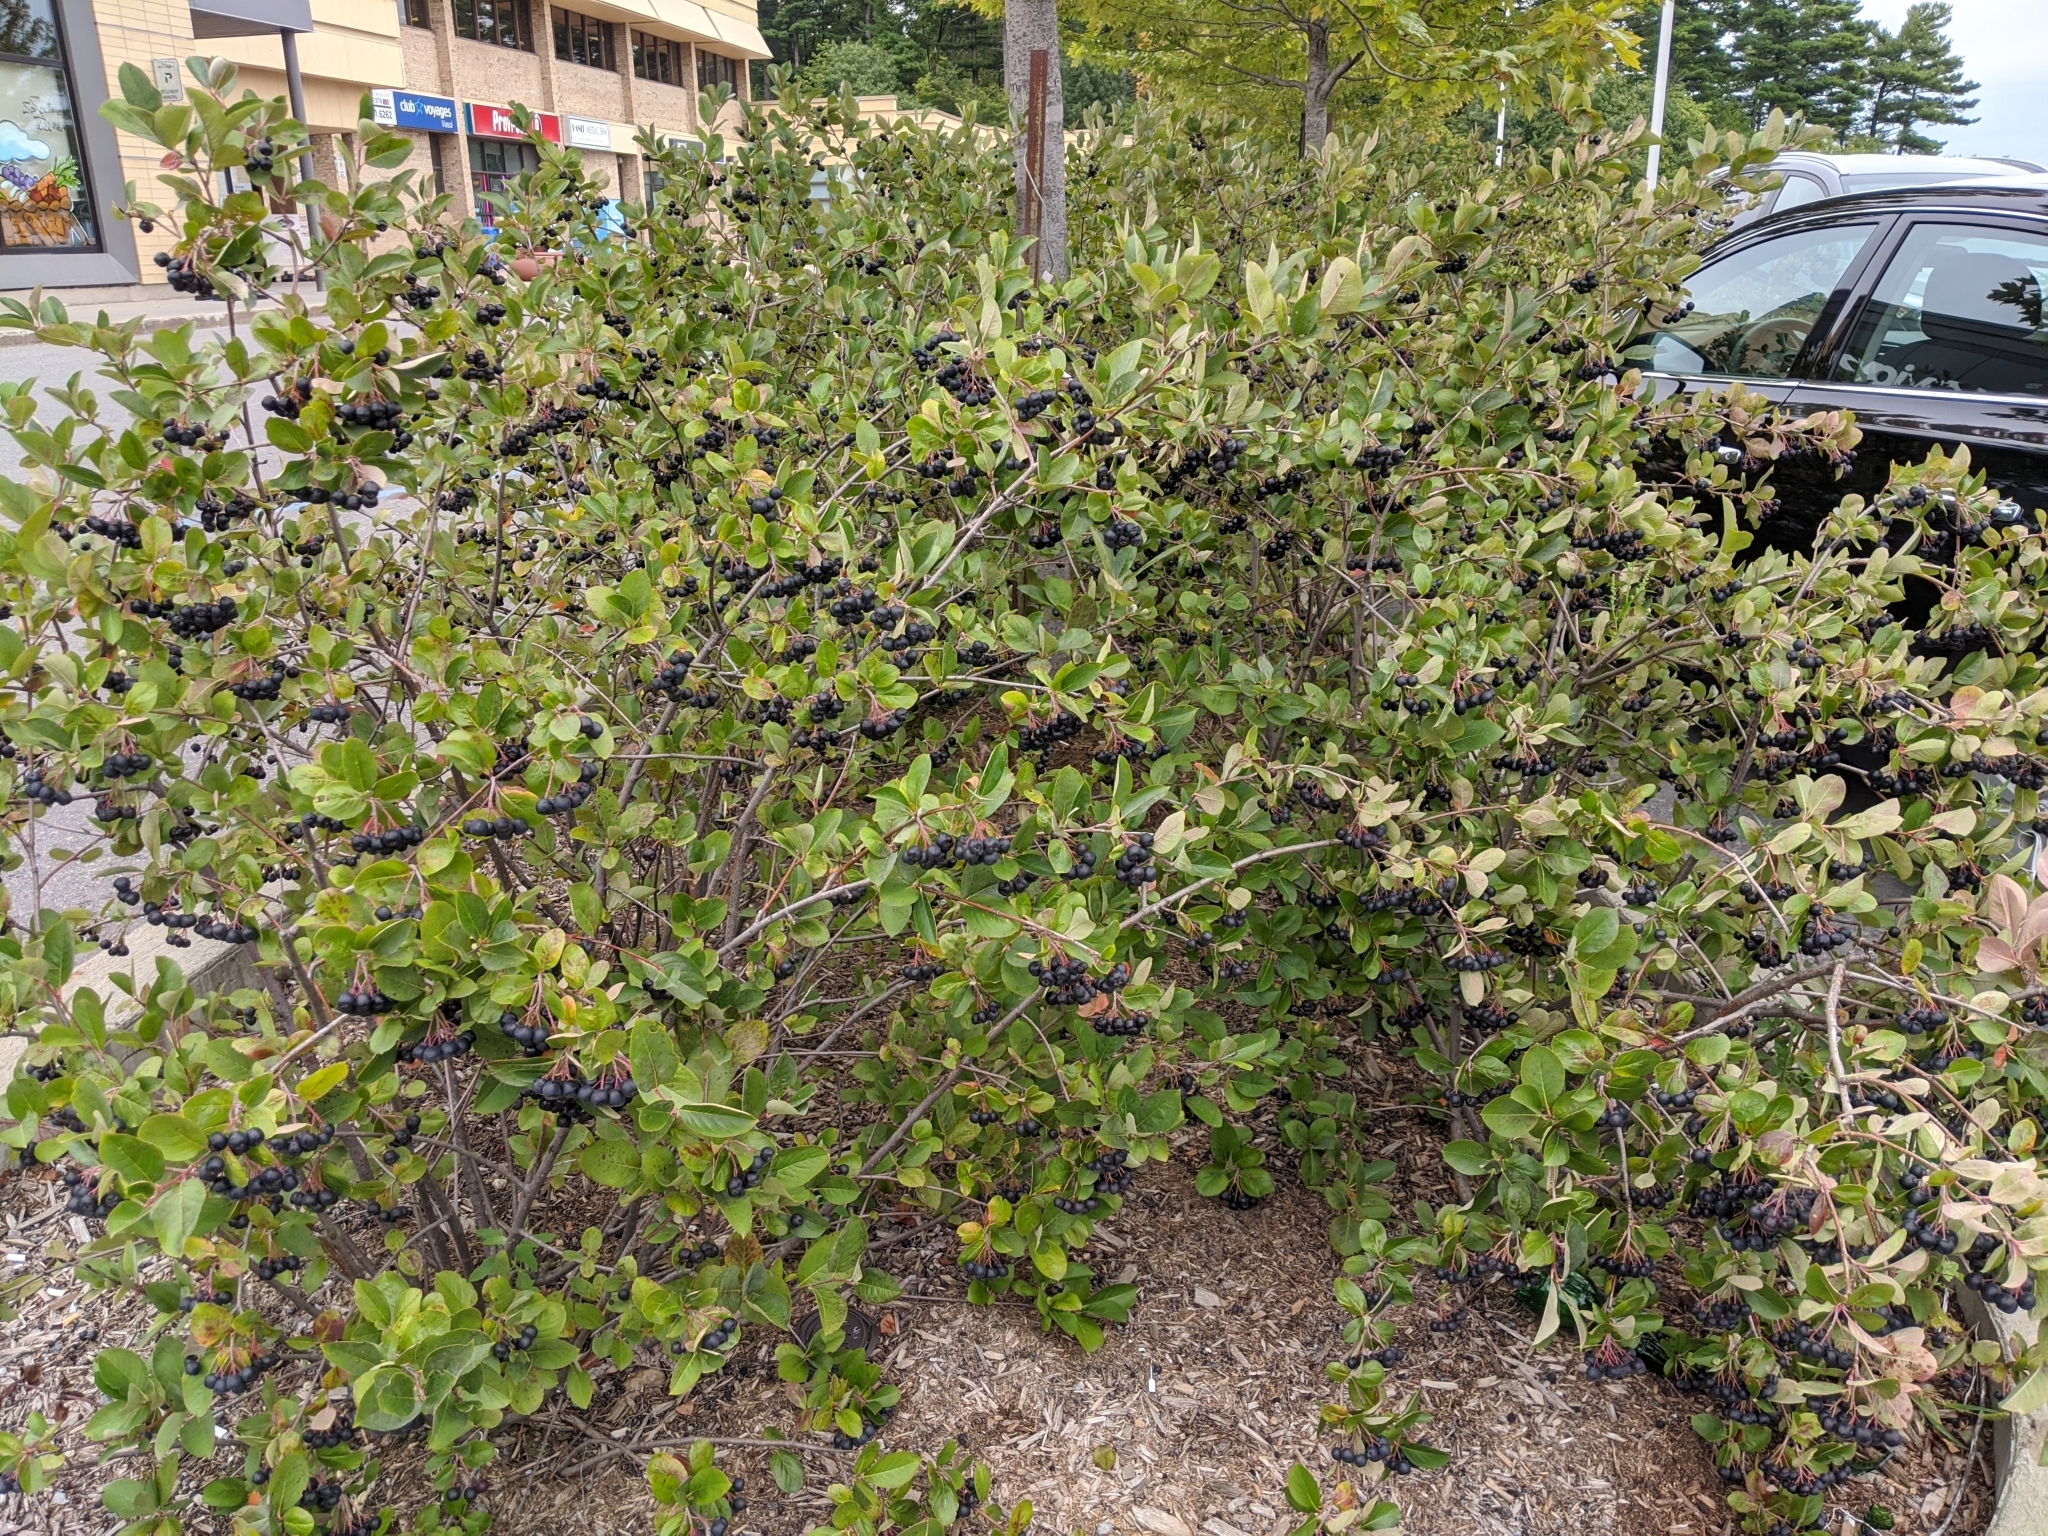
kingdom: Plantae
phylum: Tracheophyta
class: Magnoliopsida
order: Rosales
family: Rosaceae
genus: Aronia
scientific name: Aronia melanocarpa
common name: Black chokeberry
